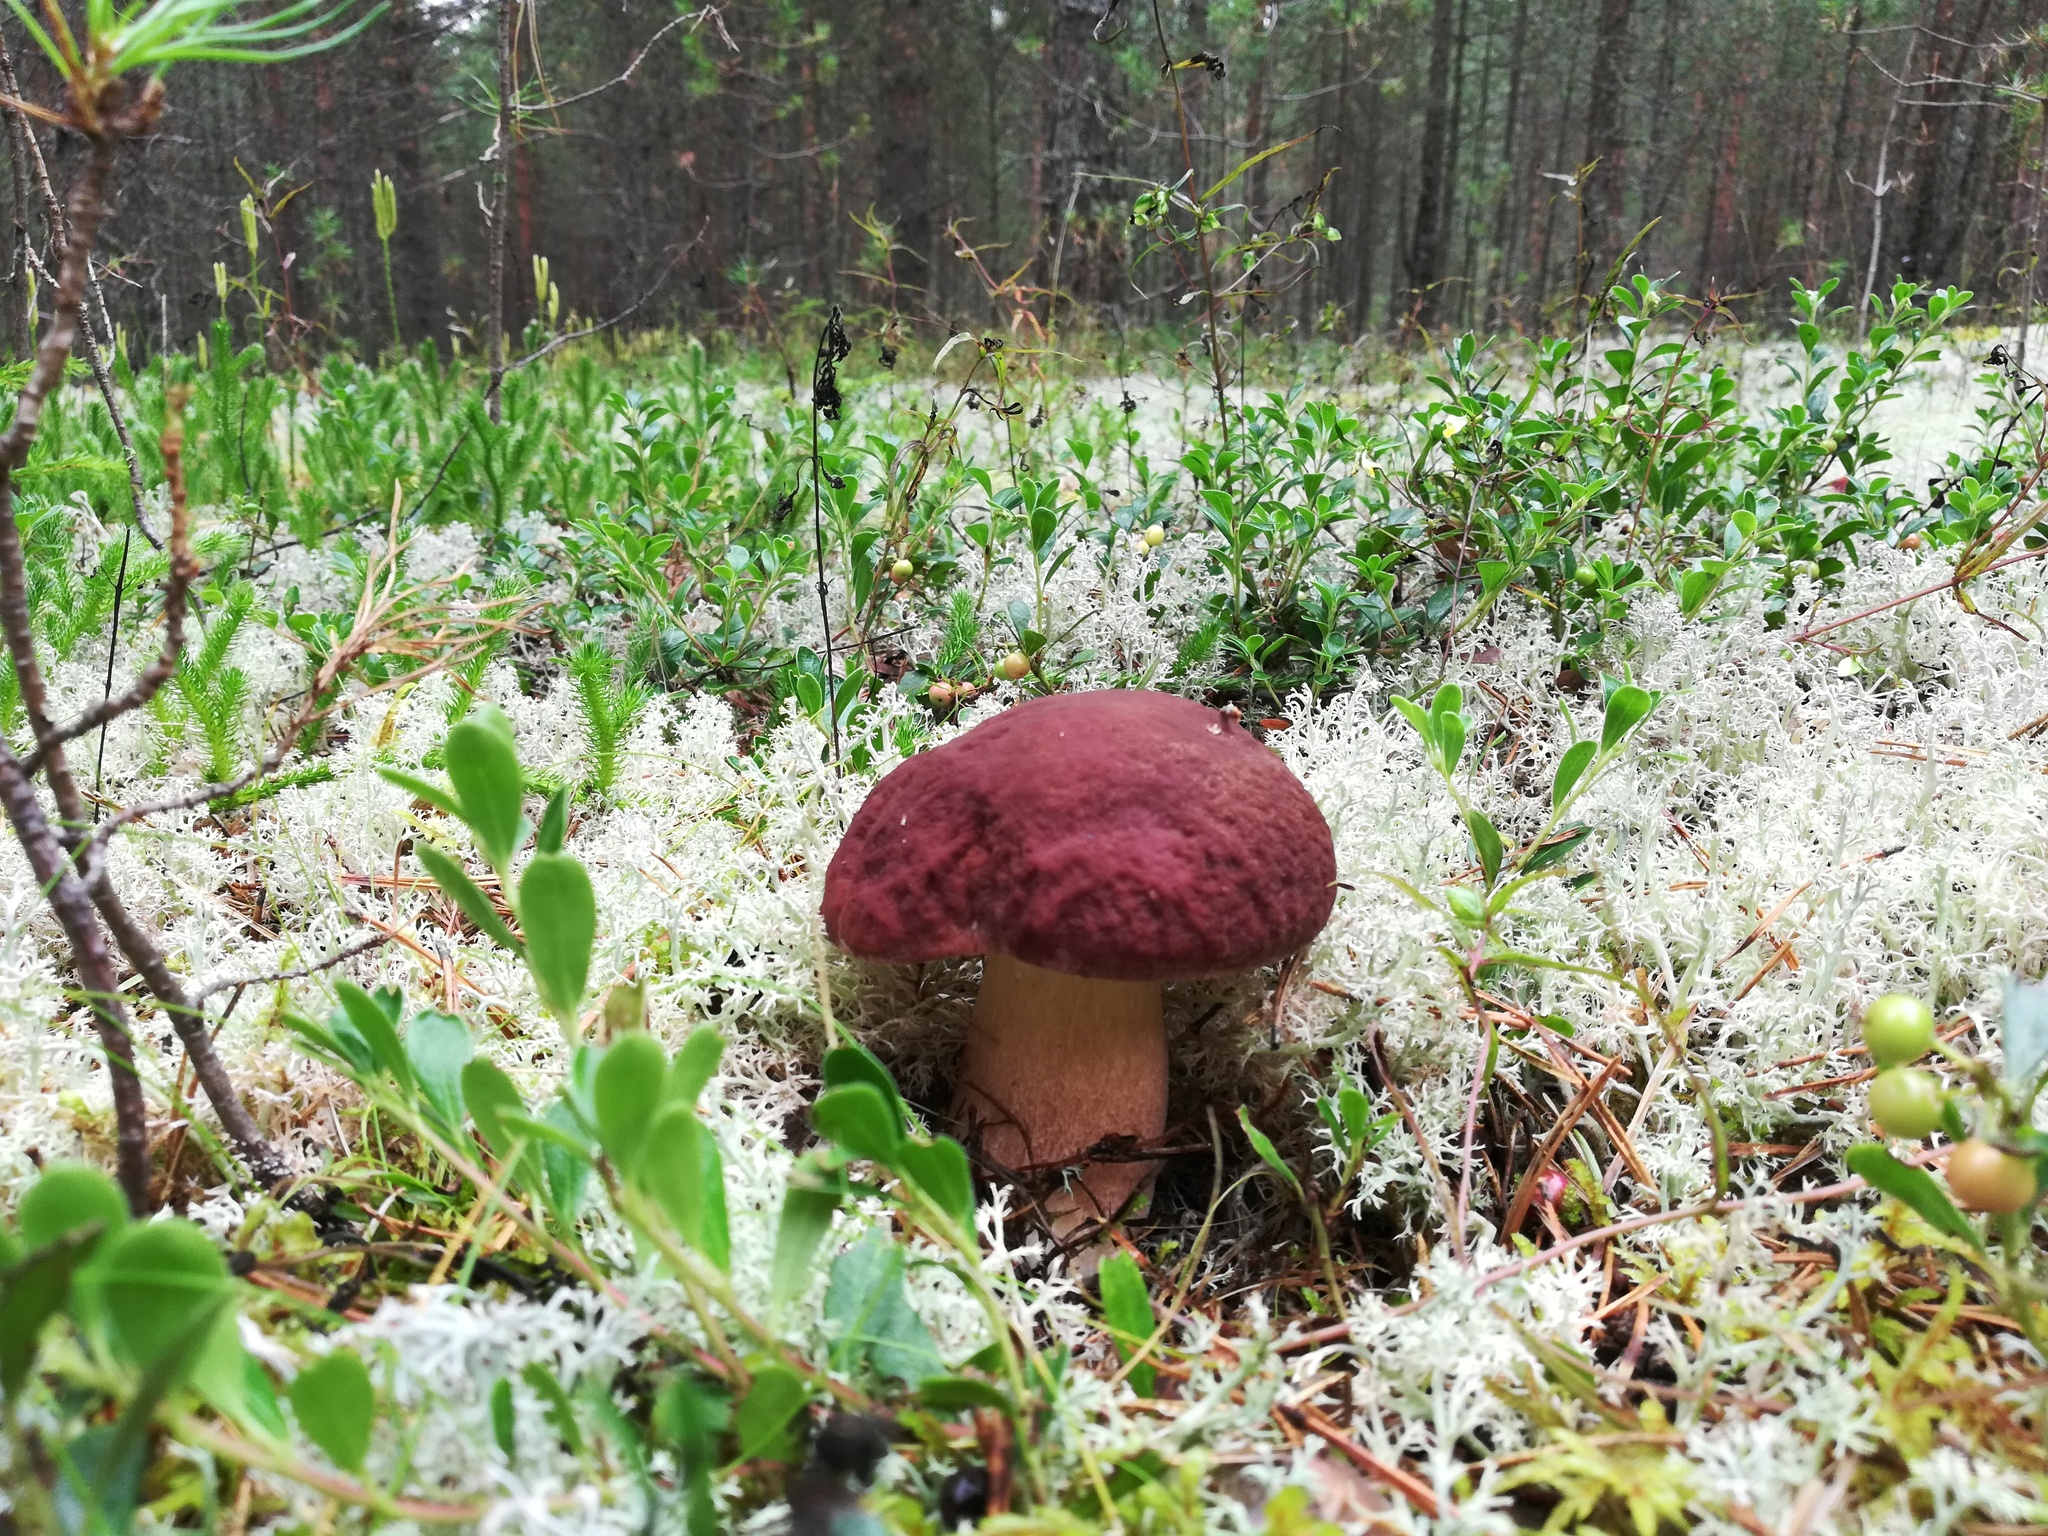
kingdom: Fungi
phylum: Basidiomycota
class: Agaricomycetes
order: Boletales
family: Boletaceae
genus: Boletus
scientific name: Boletus pinophilus
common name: Pine bolete
